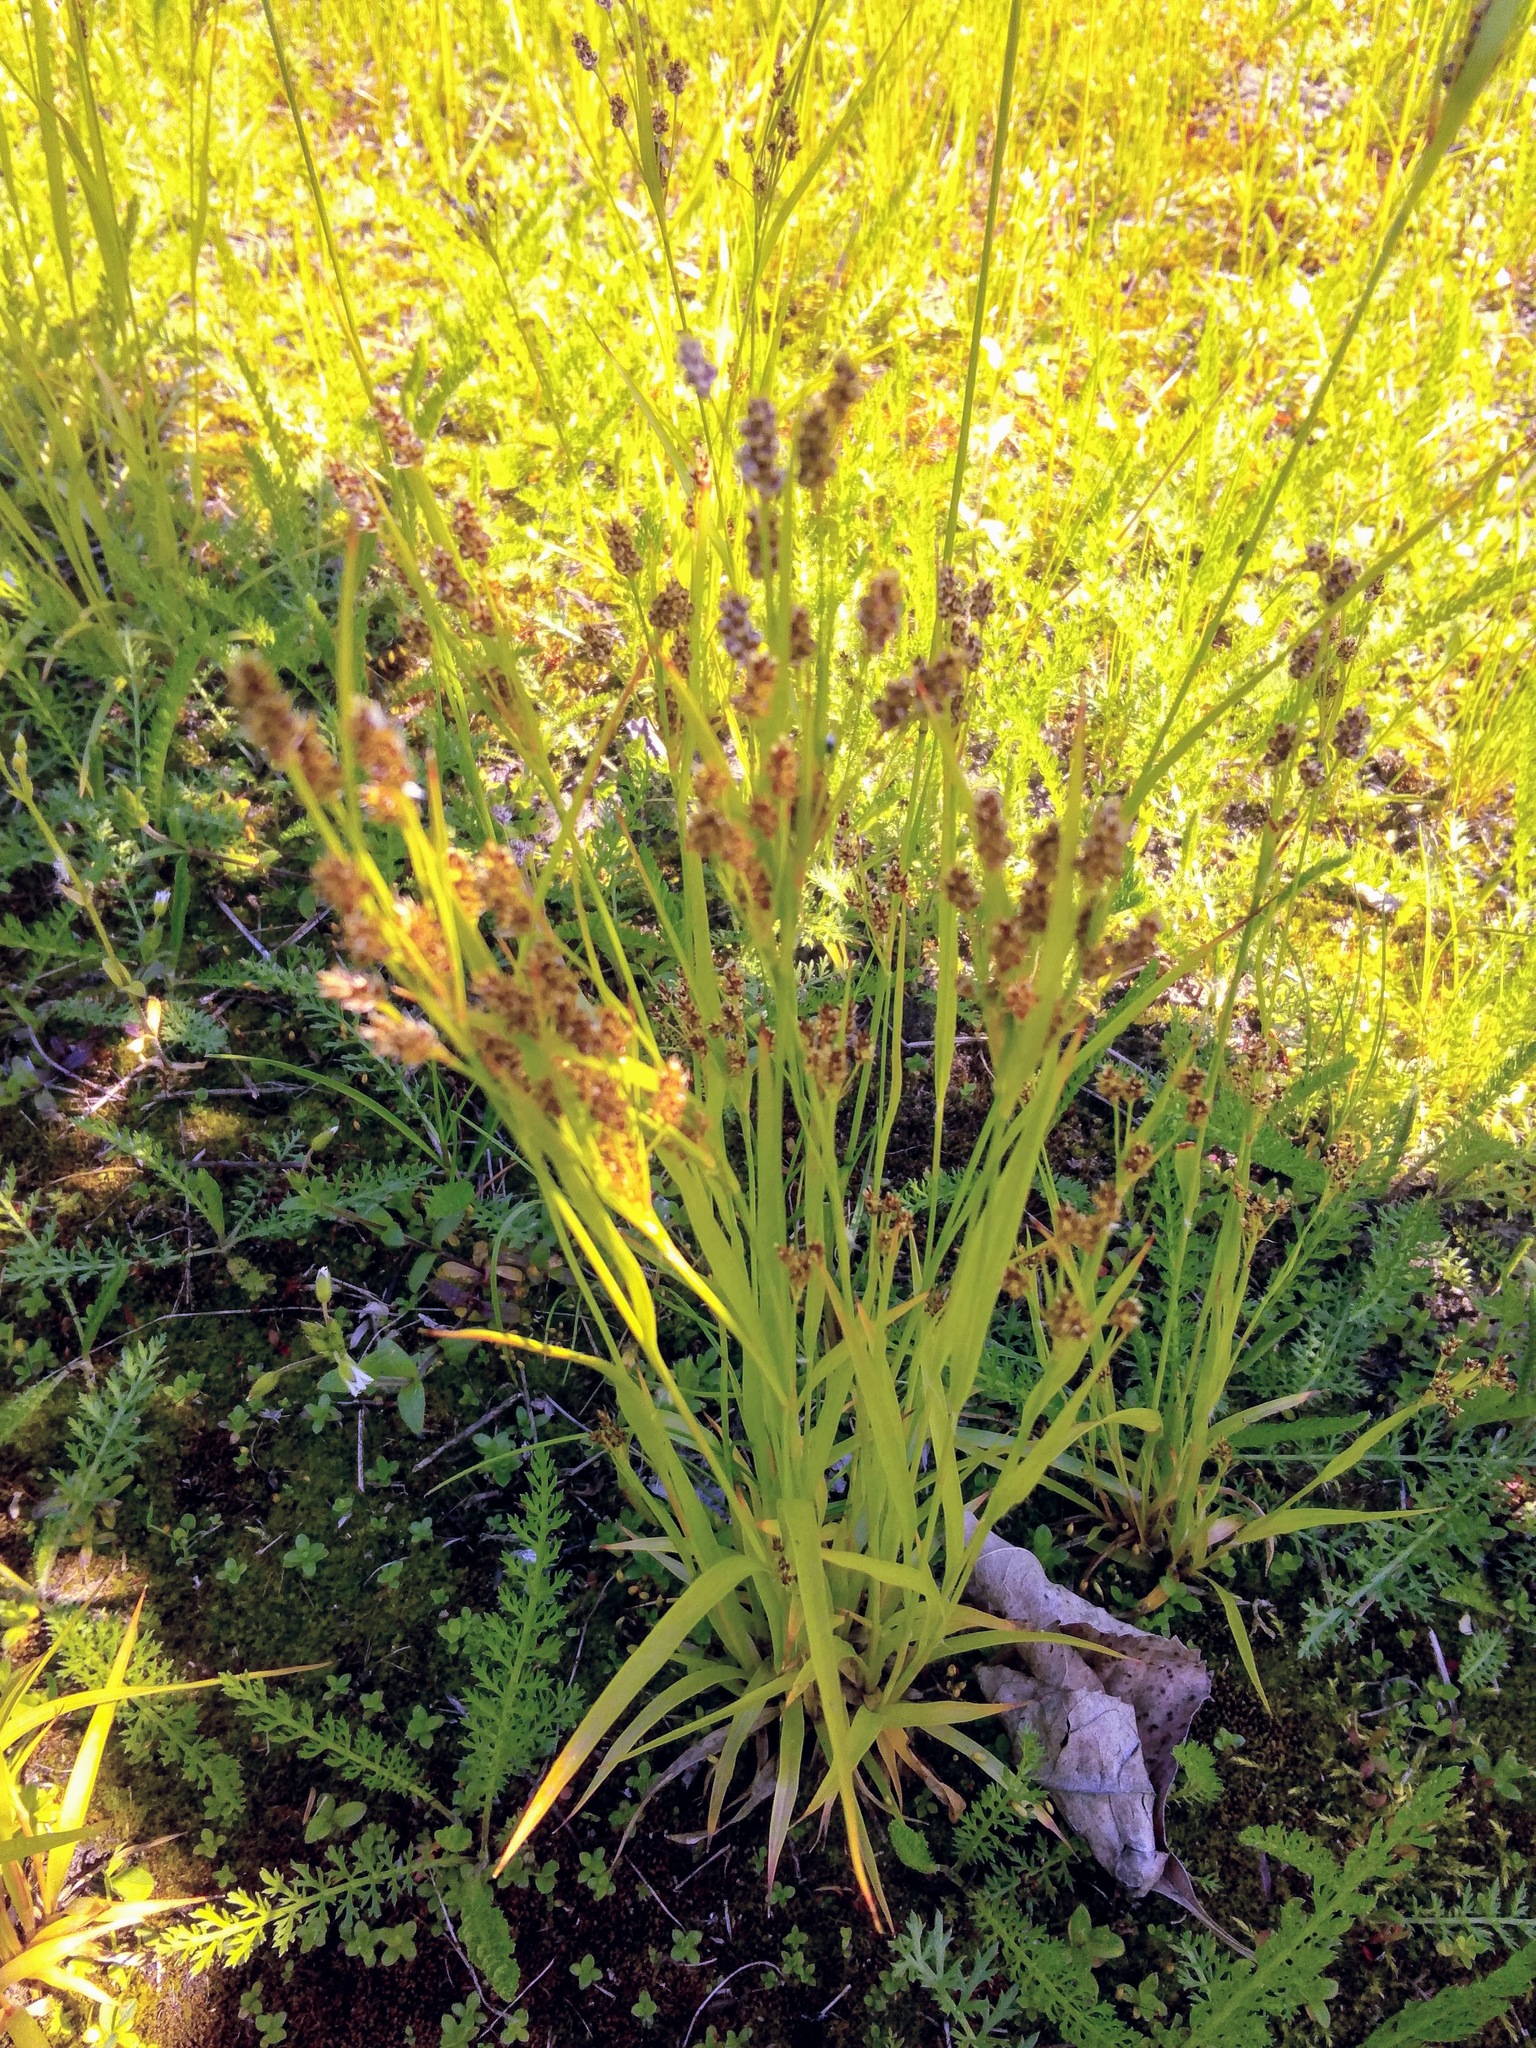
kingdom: Plantae
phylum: Tracheophyta
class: Liliopsida
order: Poales
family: Juncaceae
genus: Luzula
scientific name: Luzula multiflora
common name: Heath wood-rush
